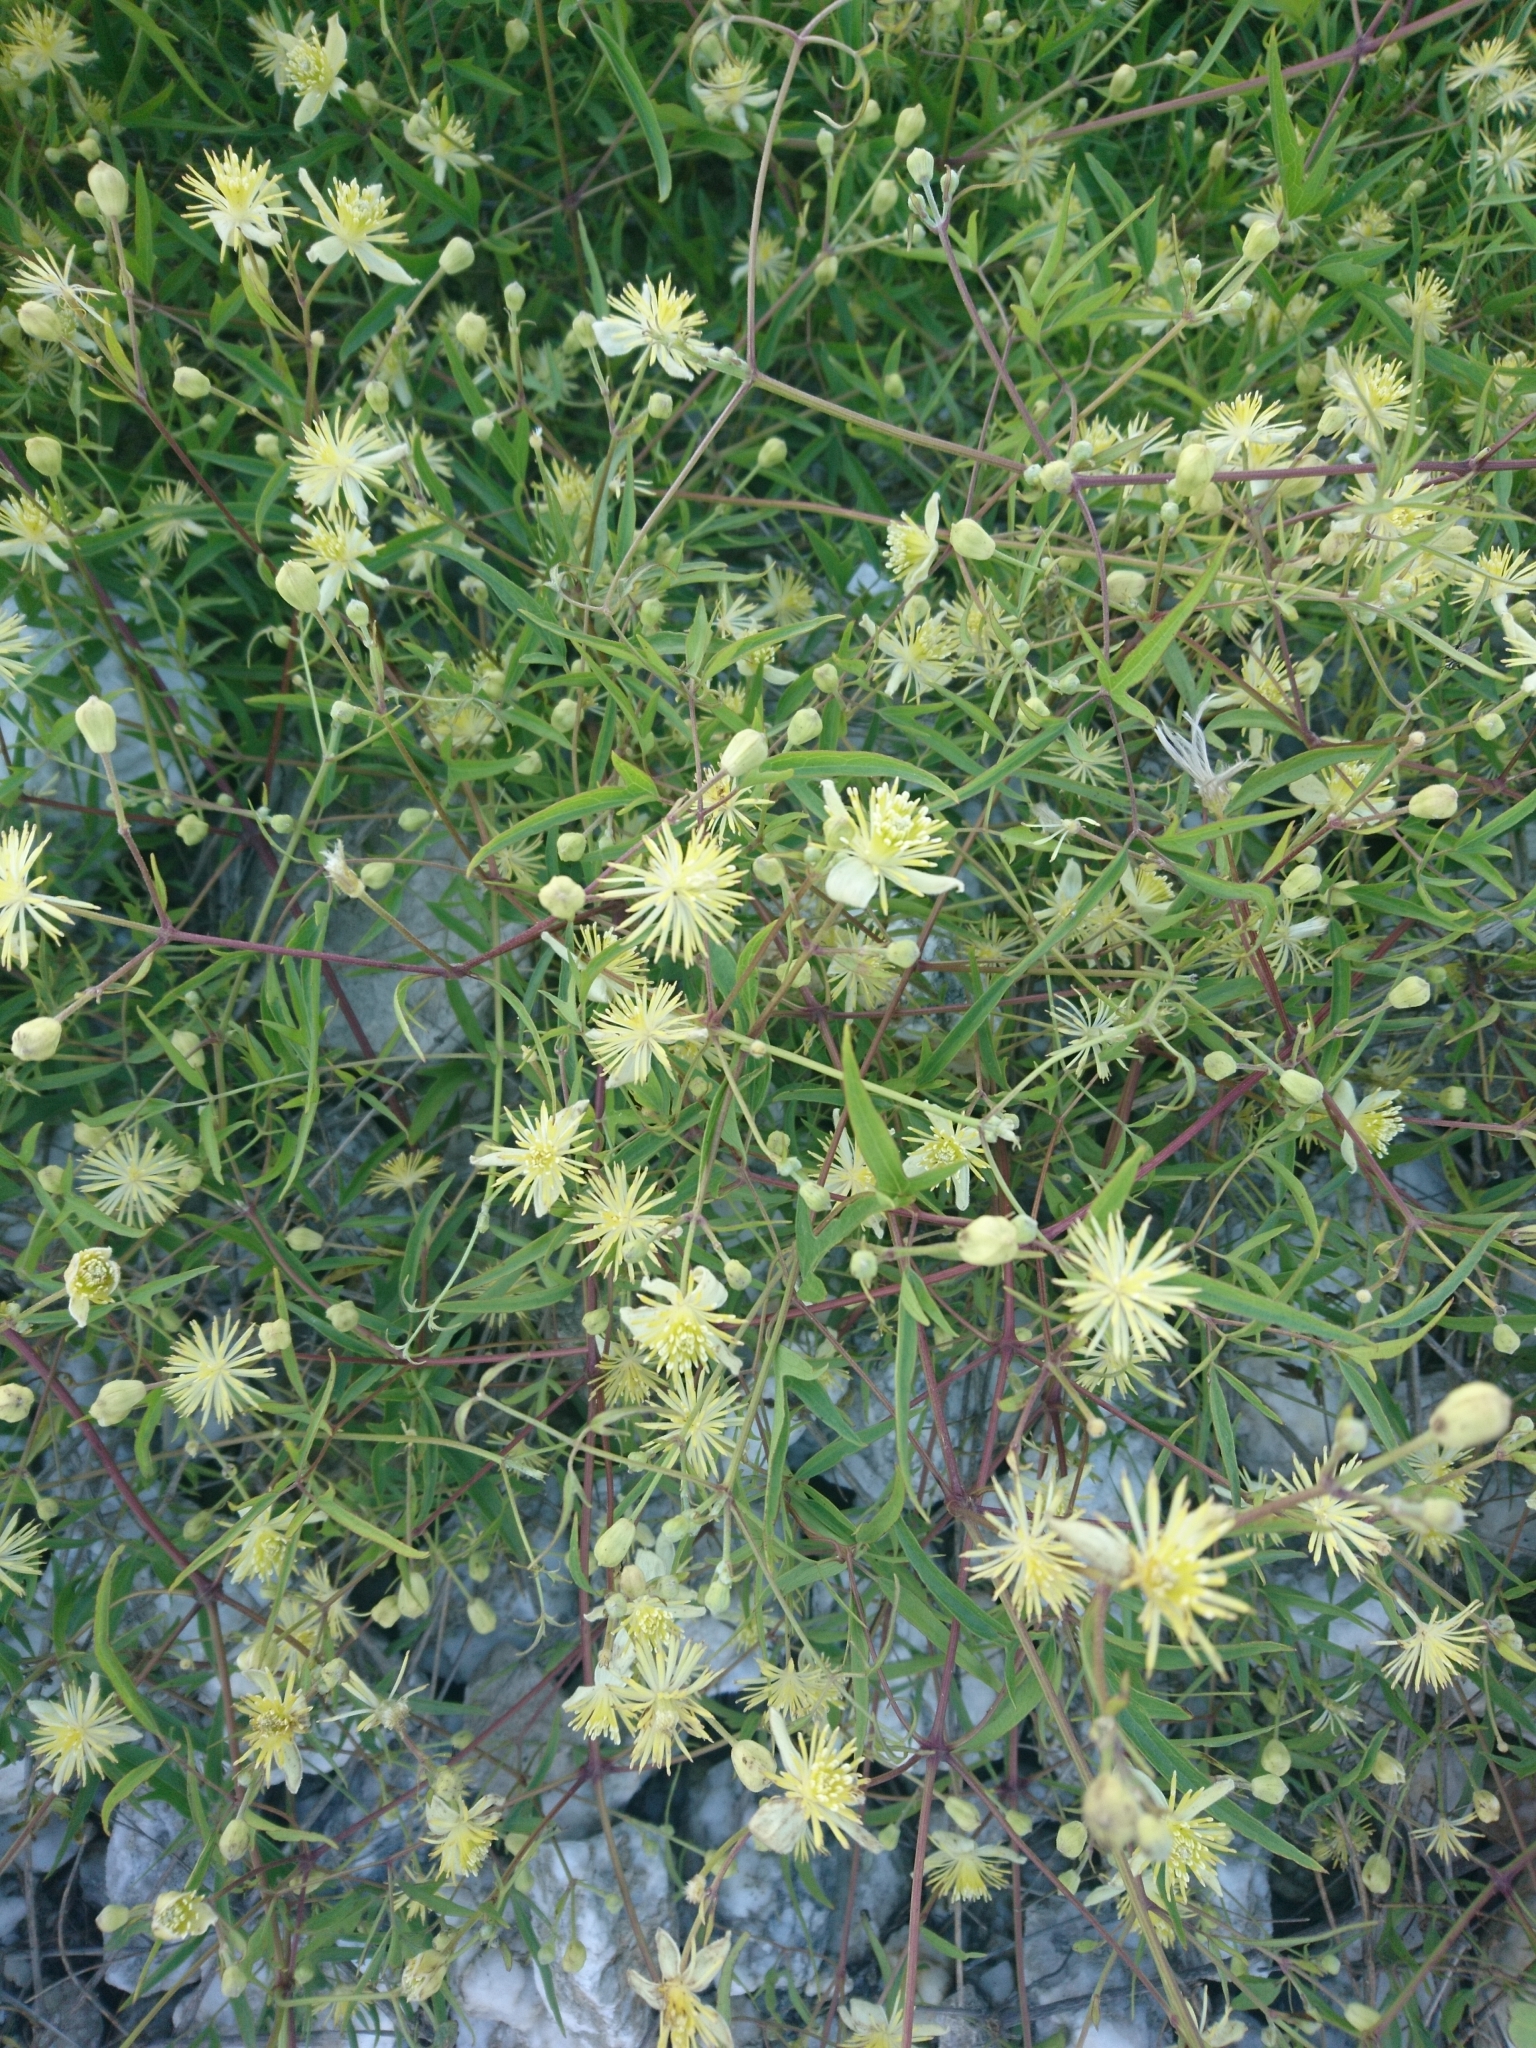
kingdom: Plantae
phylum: Tracheophyta
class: Magnoliopsida
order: Ranunculales
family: Ranunculaceae
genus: Clematis
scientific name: Clematis montevidensis
